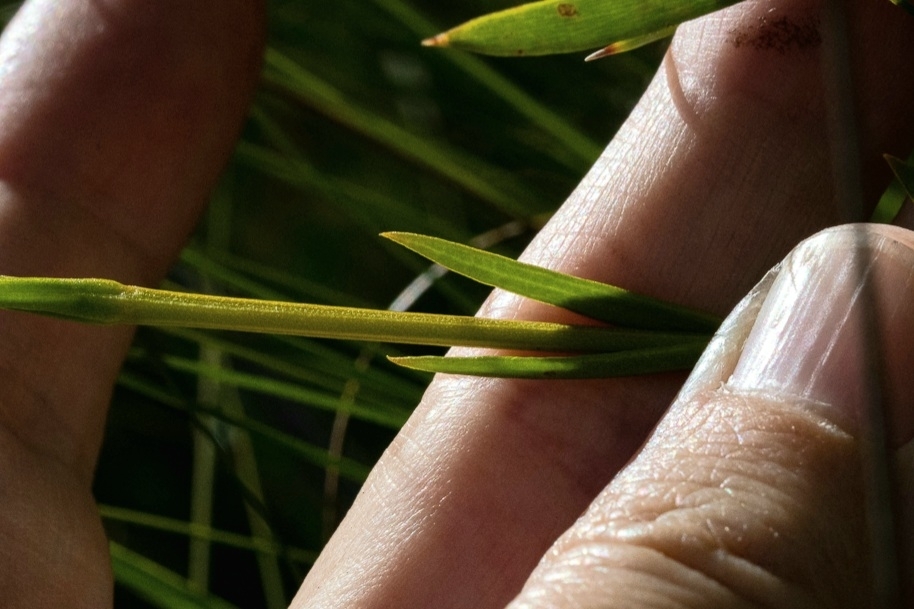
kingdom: Plantae
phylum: Tracheophyta
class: Magnoliopsida
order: Gentianales
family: Gentianaceae
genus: Chironia
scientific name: Chironia jasminoides
